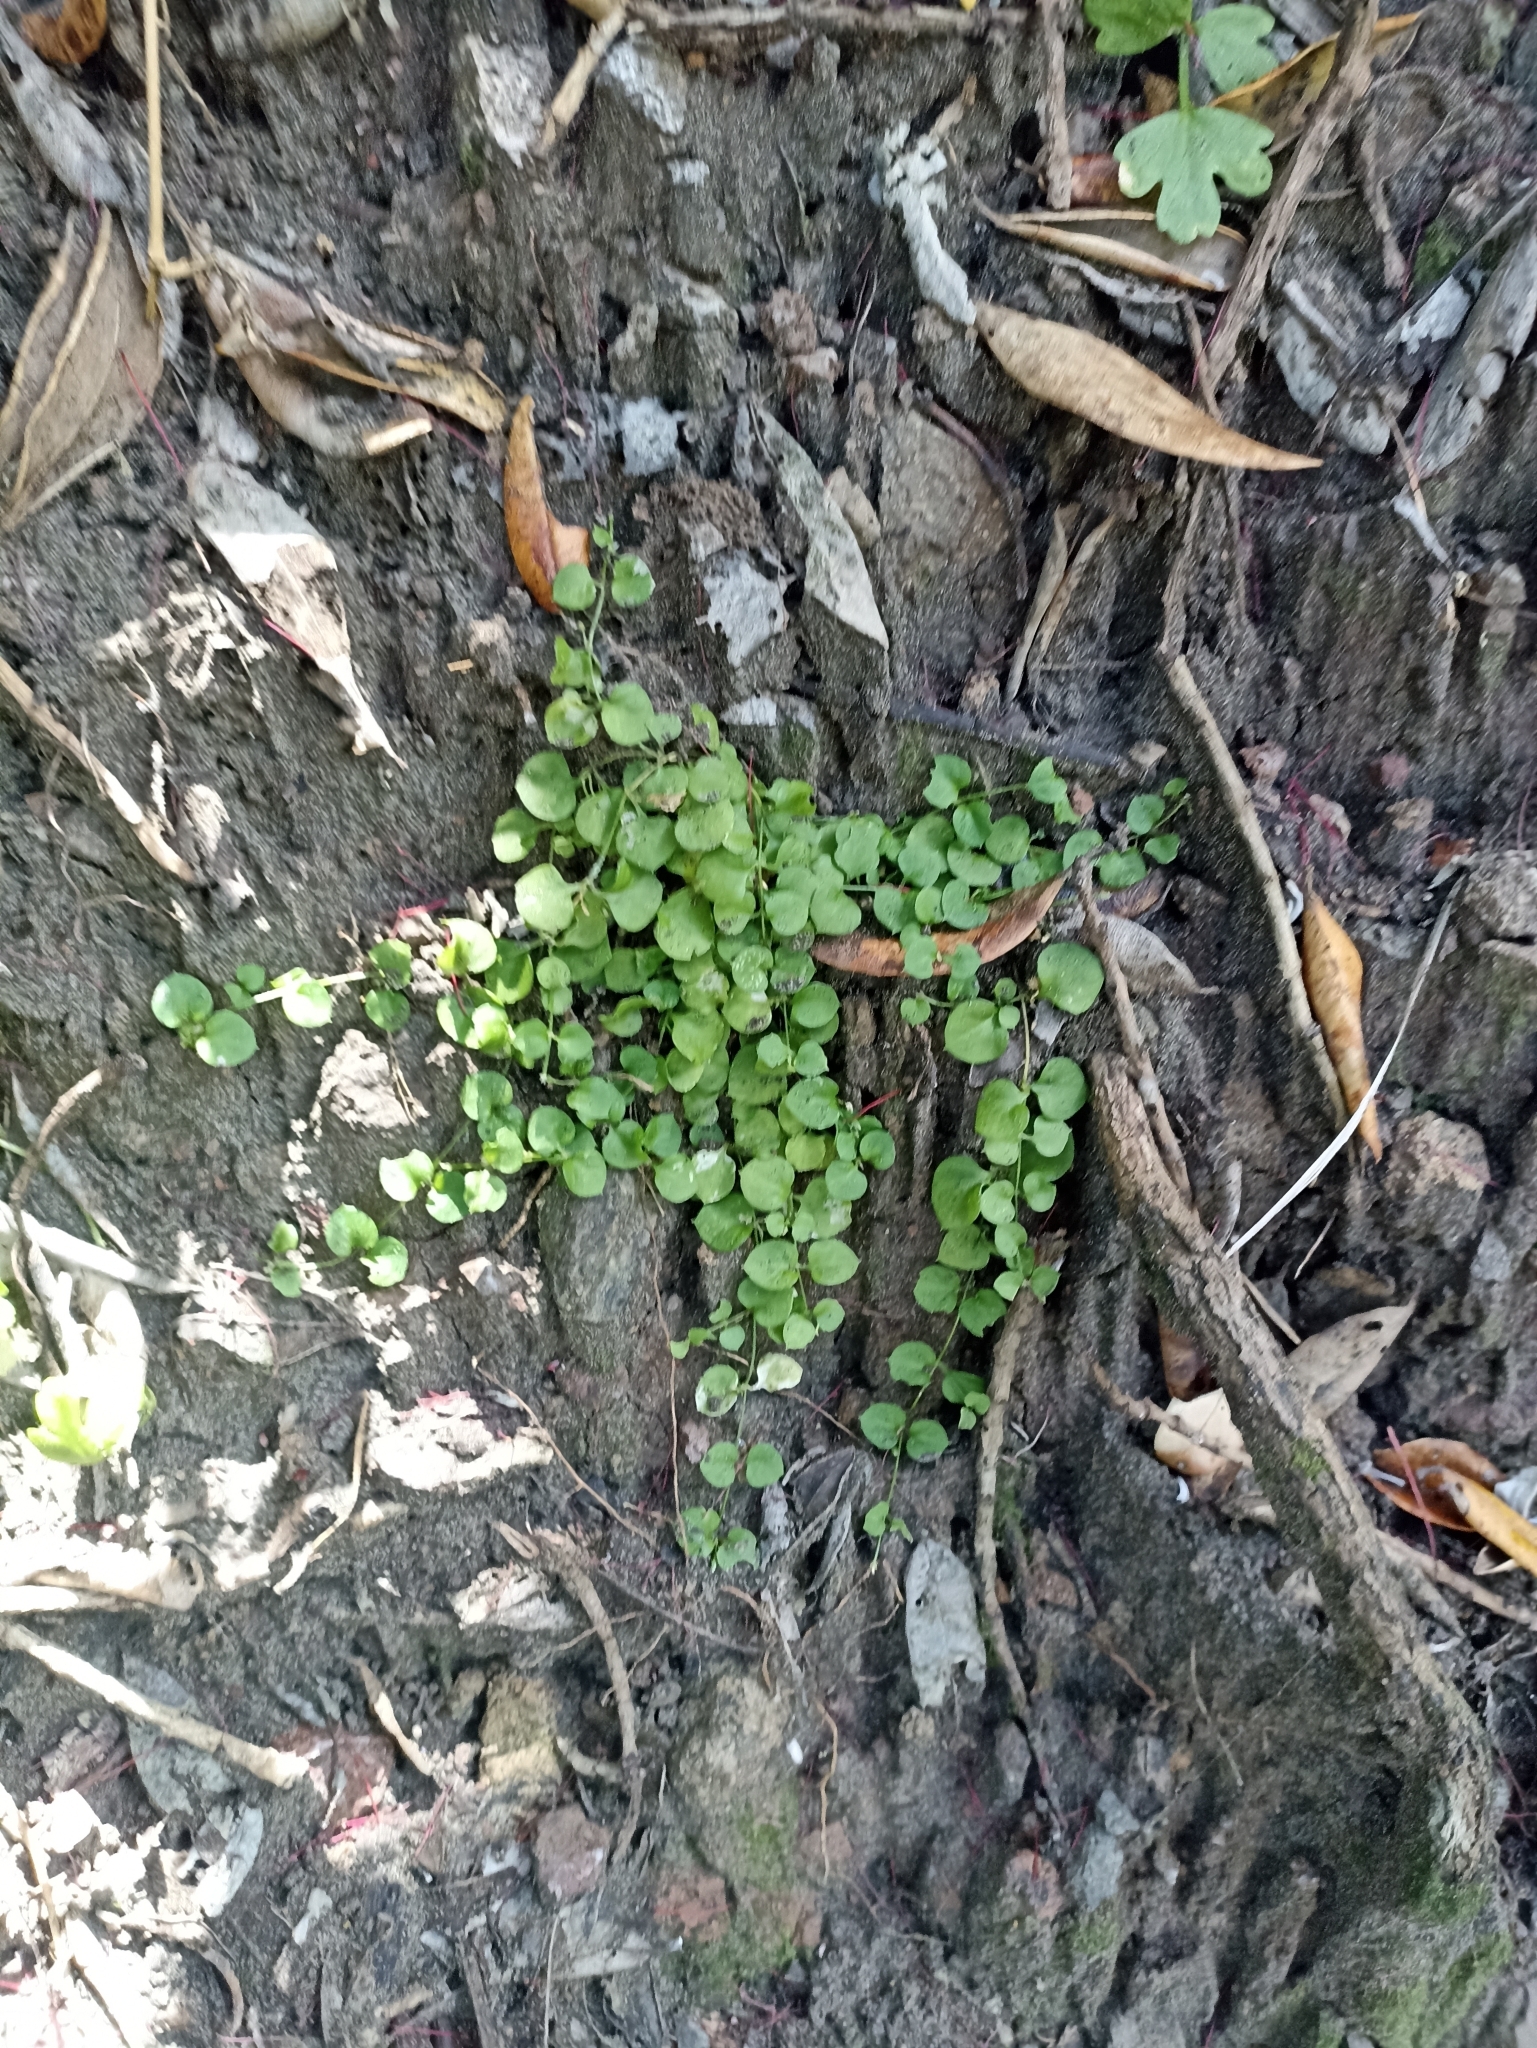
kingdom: Plantae
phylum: Tracheophyta
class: Magnoliopsida
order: Caryophyllales
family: Caryophyllaceae
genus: Stellaria
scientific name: Stellaria parviflora
